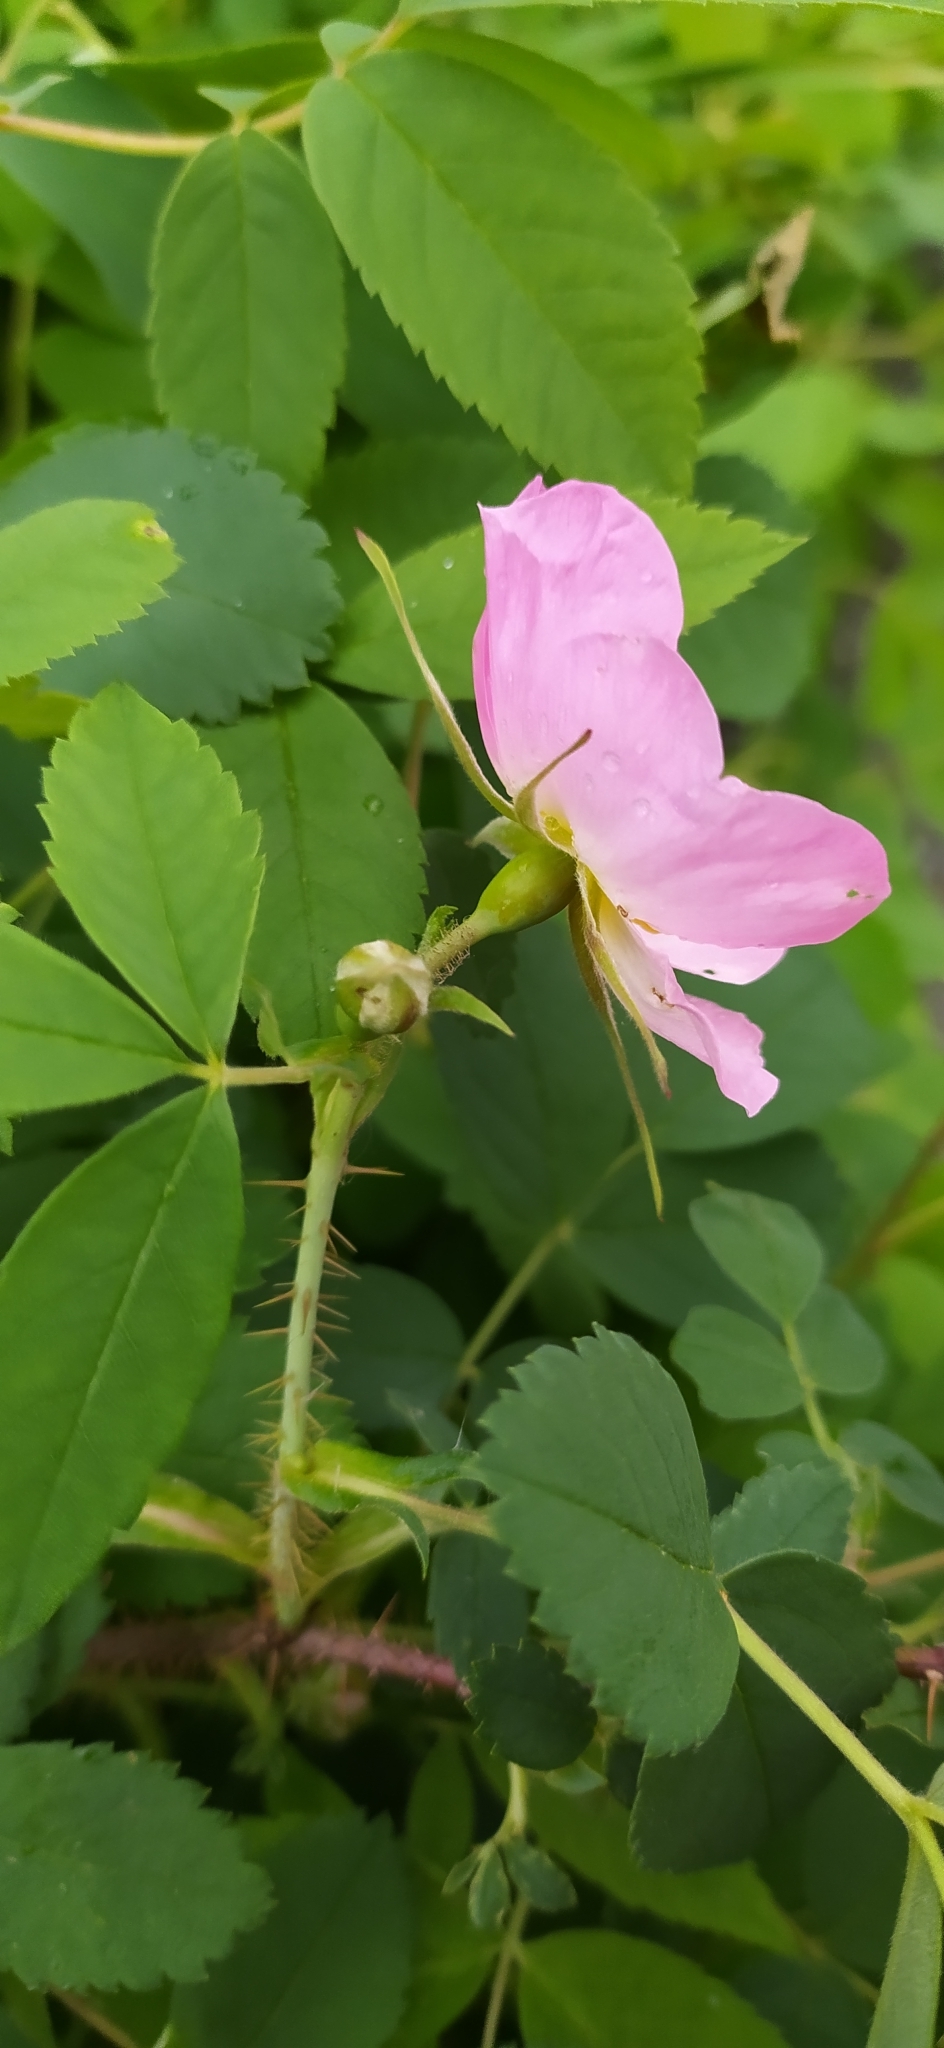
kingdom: Plantae
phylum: Tracheophyta
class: Magnoliopsida
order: Rosales
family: Rosaceae
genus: Rosa
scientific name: Rosa acicularis
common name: Prickly rose
